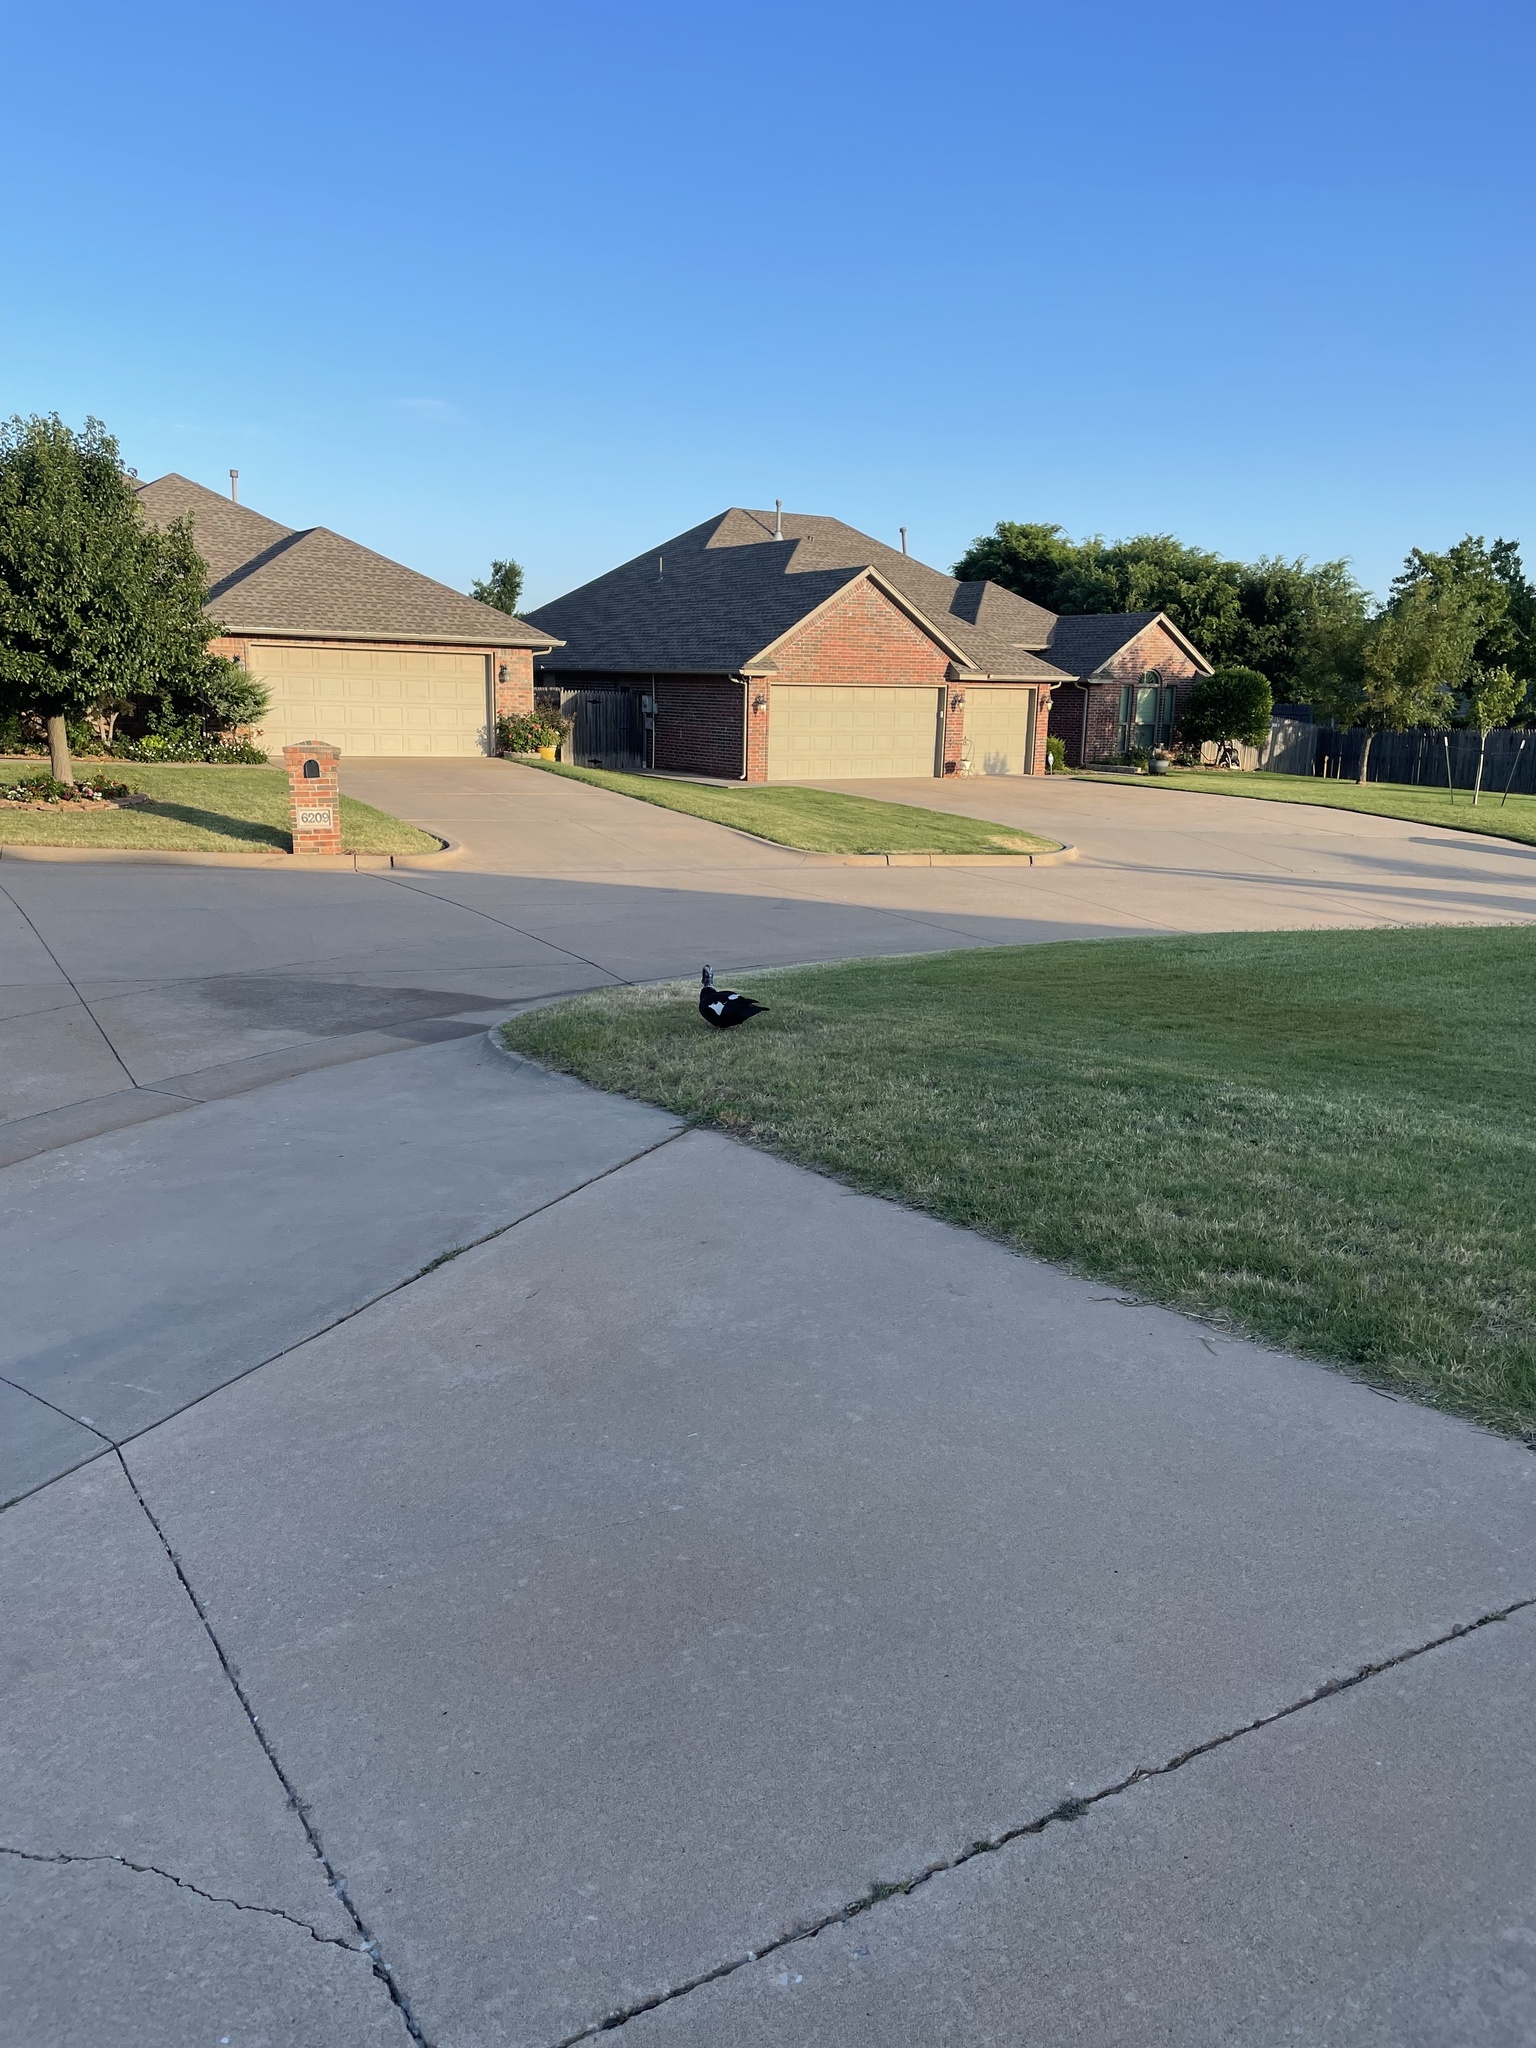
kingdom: Animalia
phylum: Chordata
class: Aves
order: Anseriformes
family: Anatidae
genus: Cairina
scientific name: Cairina moschata
